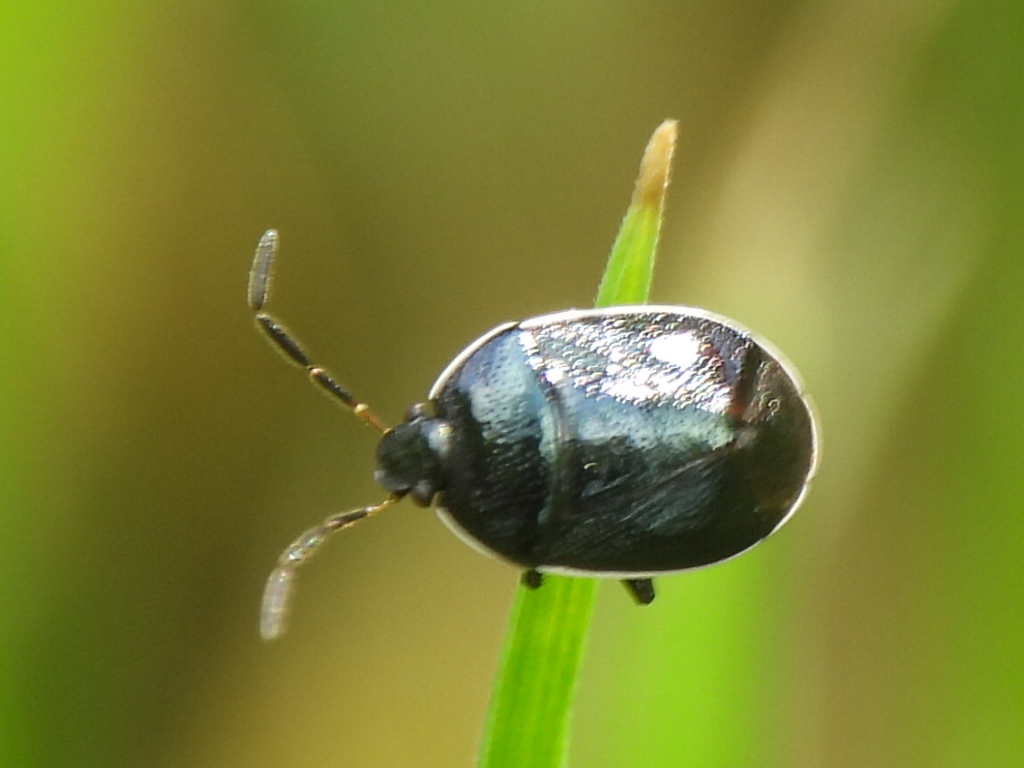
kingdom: Animalia
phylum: Arthropoda
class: Insecta
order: Hemiptera
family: Cydnidae
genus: Sehirus
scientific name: Sehirus cinctus
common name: White-margined burrower bug
